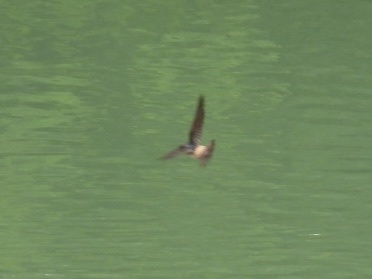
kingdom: Animalia
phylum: Chordata
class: Aves
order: Passeriformes
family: Hirundinidae
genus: Petrochelidon
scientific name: Petrochelidon pyrrhonota
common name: American cliff swallow
